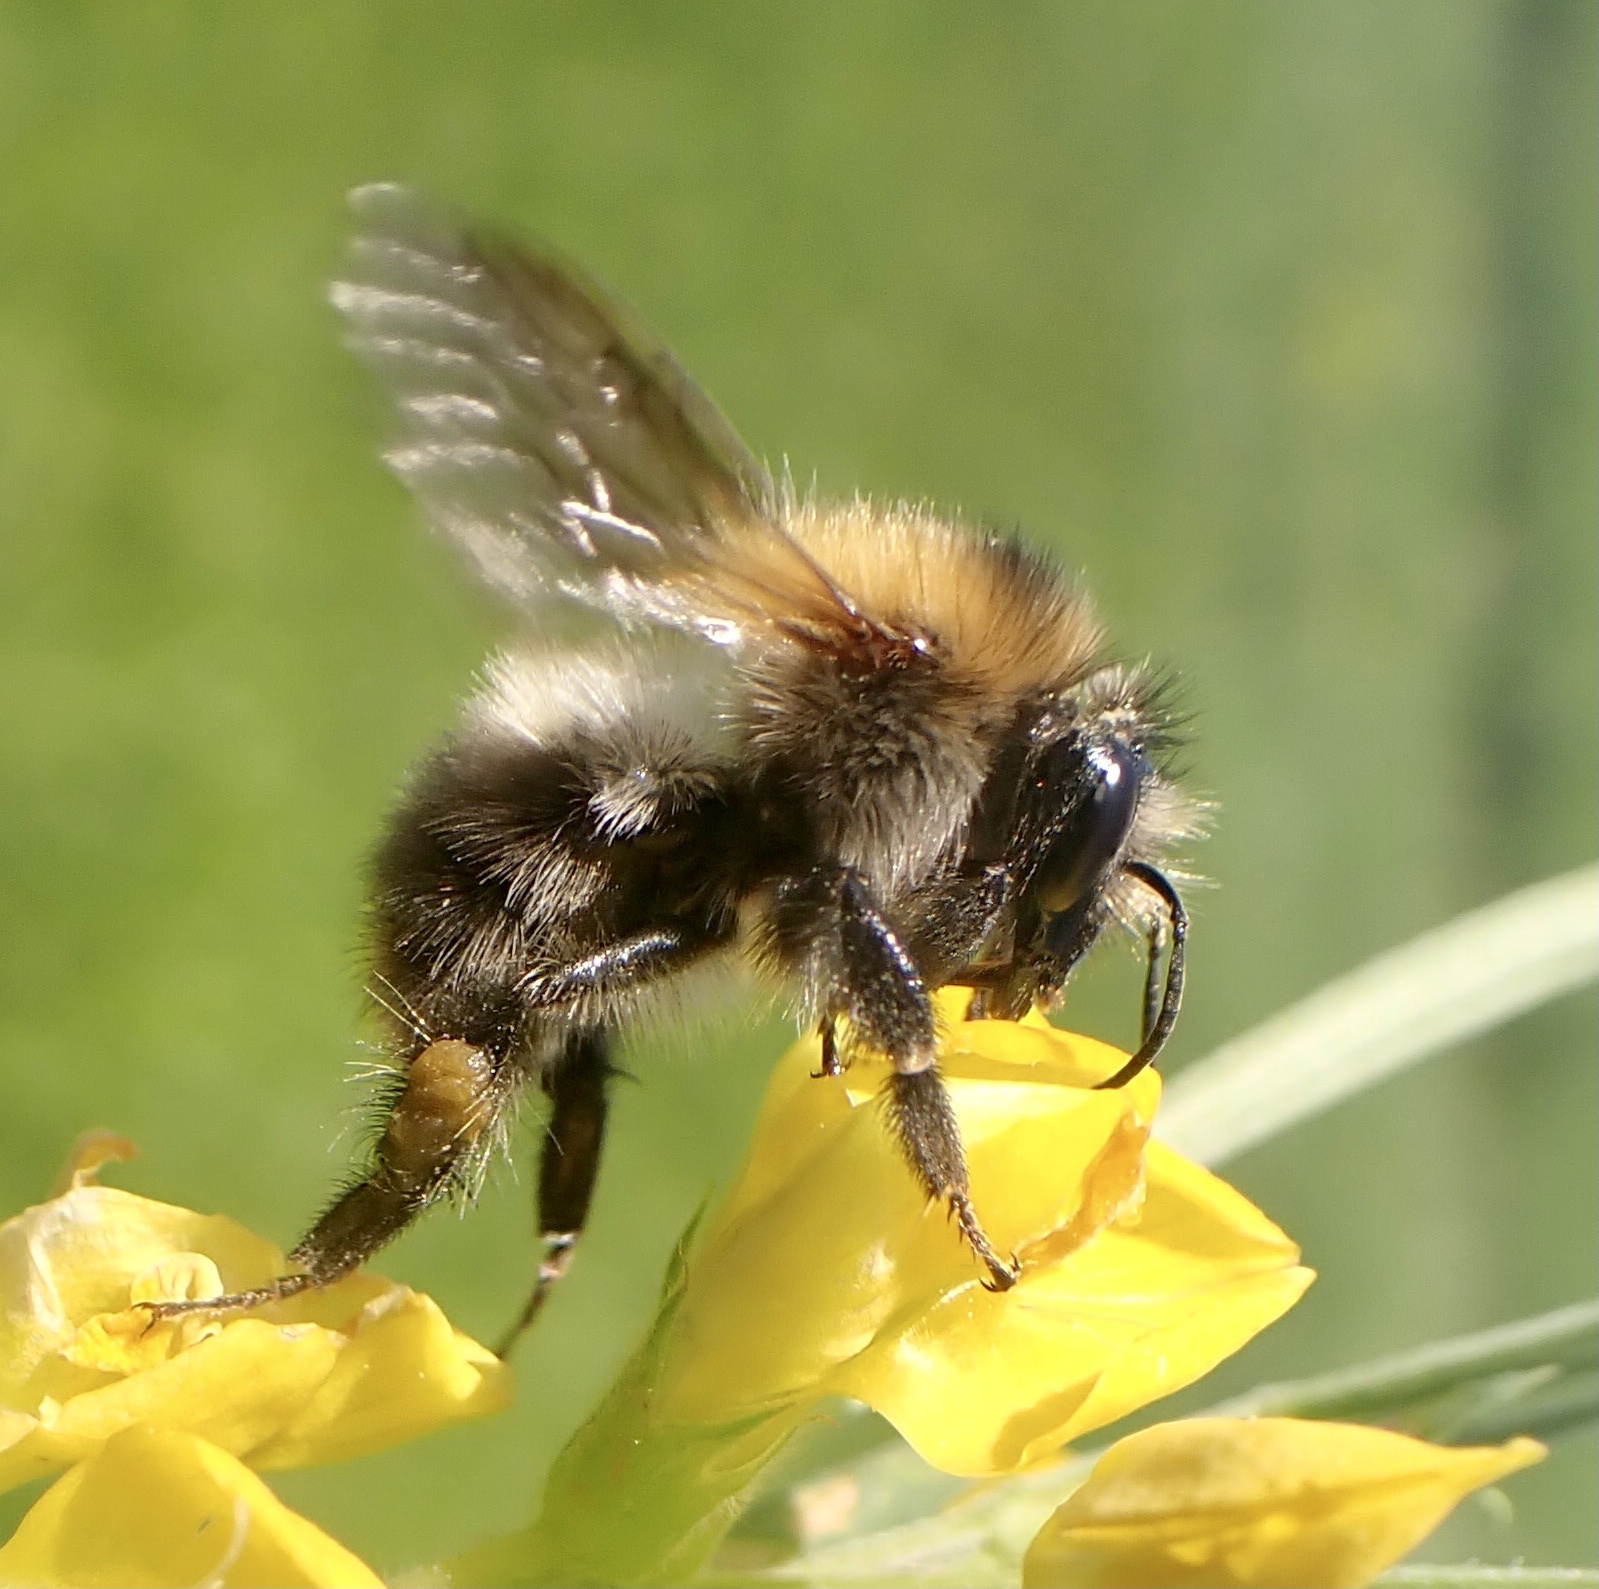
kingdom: Animalia
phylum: Arthropoda
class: Insecta
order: Hymenoptera
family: Apidae
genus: Bombus
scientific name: Bombus pascuorum
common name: Common carder bee
